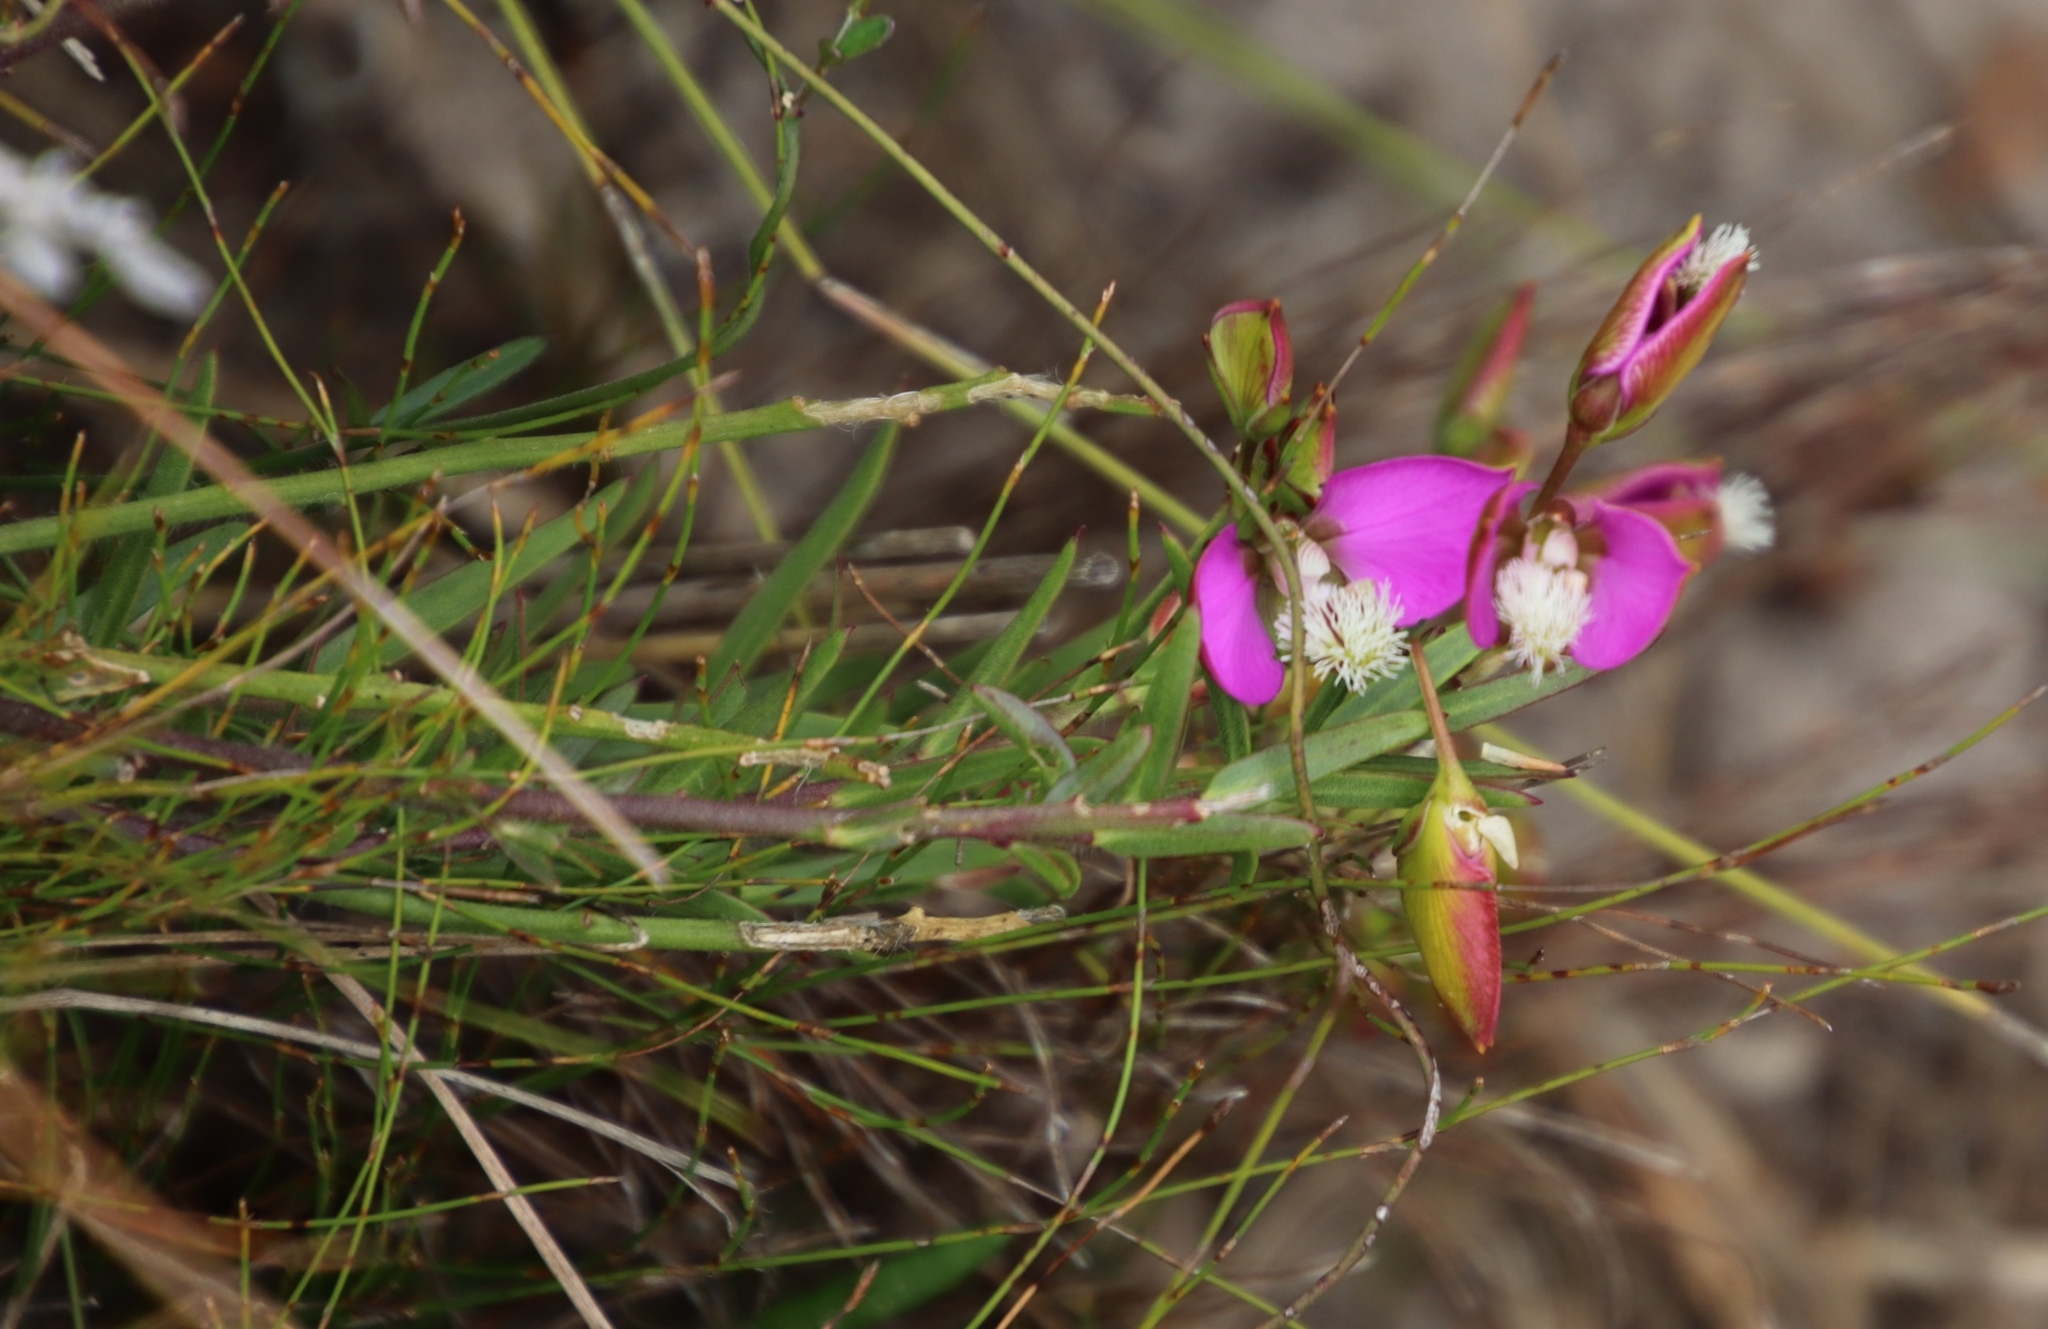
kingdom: Plantae
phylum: Tracheophyta
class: Magnoliopsida
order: Fabales
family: Polygalaceae
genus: Polygala
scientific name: Polygala bracteolata
